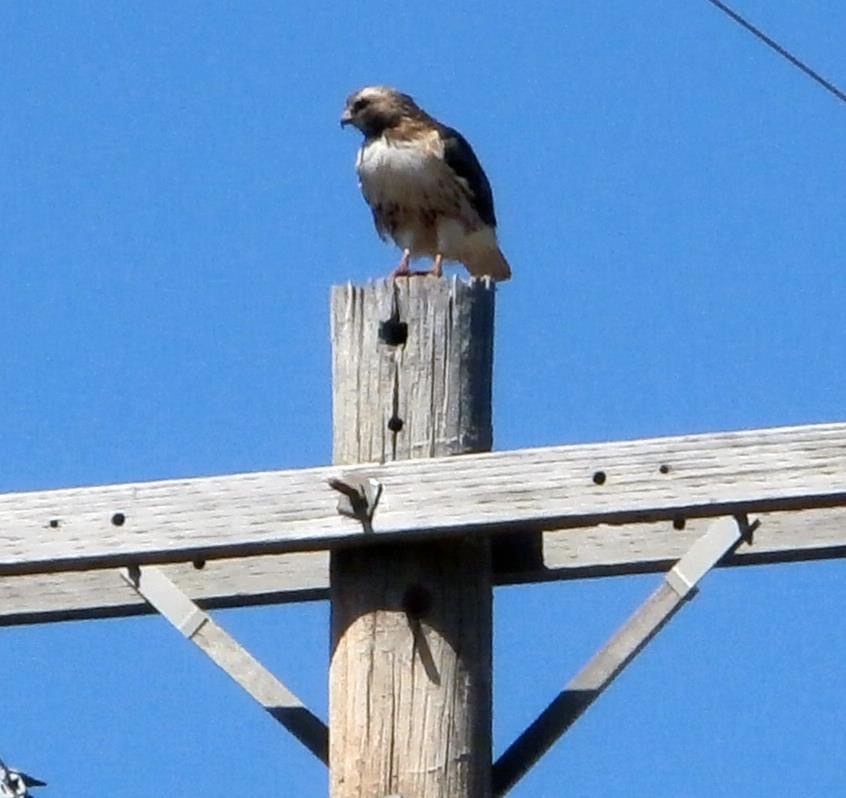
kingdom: Animalia
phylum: Chordata
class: Aves
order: Accipitriformes
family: Accipitridae
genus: Buteo
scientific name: Buteo jamaicensis
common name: Red-tailed hawk
